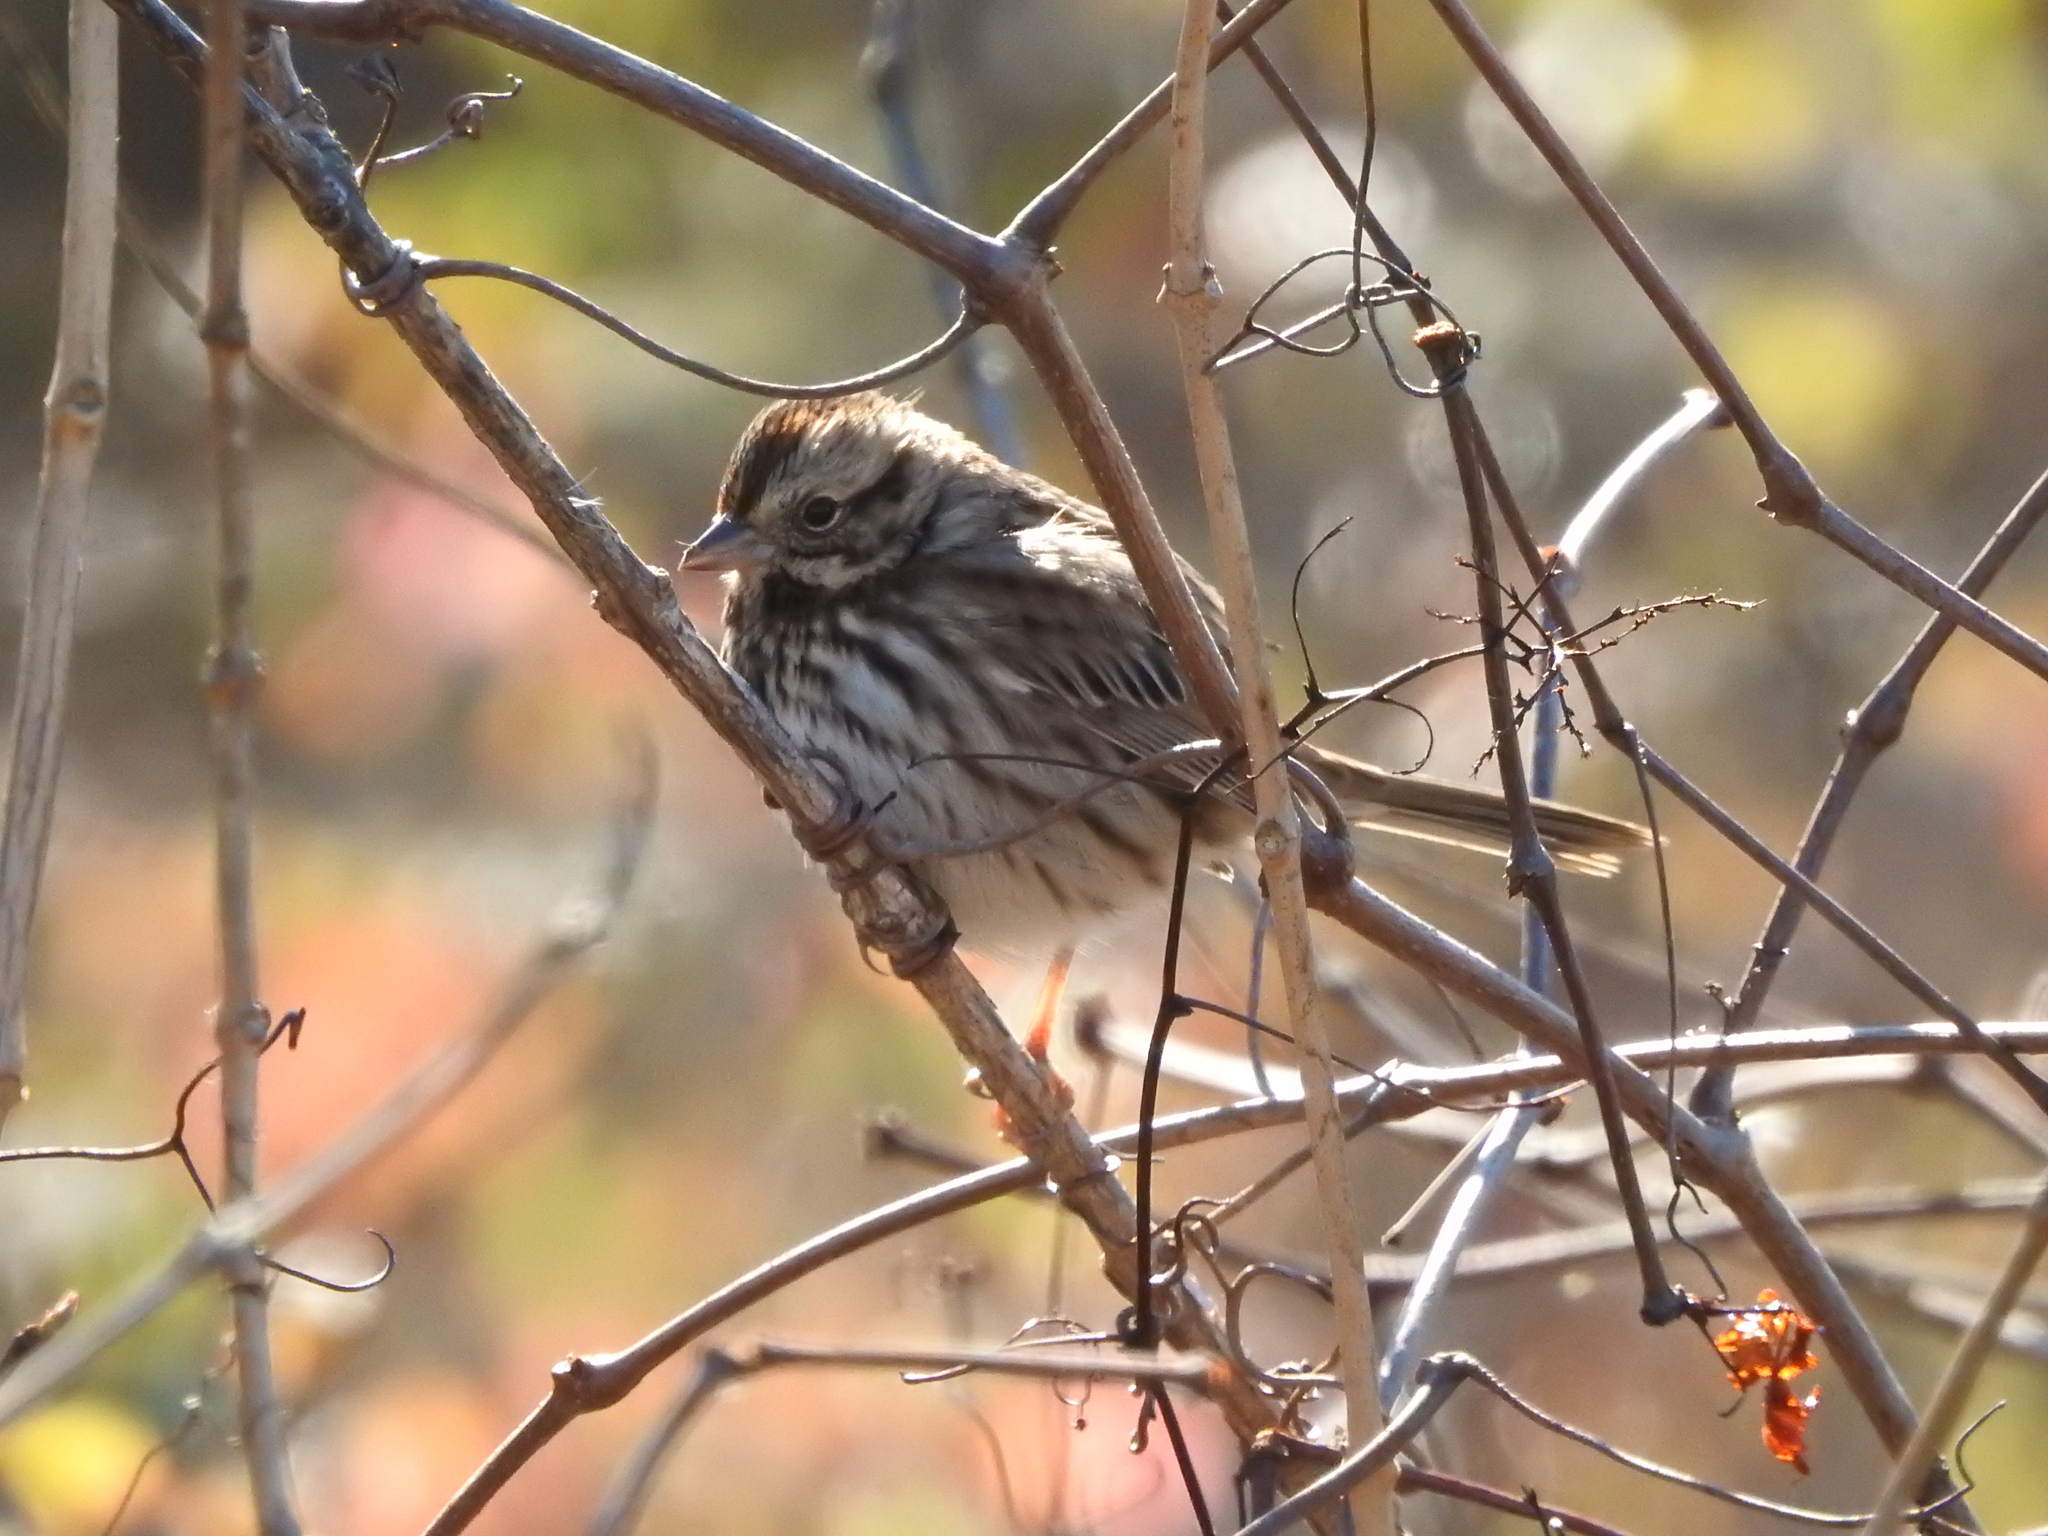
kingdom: Animalia
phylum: Chordata
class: Aves
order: Passeriformes
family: Passerellidae
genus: Melospiza
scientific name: Melospiza melodia
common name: Song sparrow
